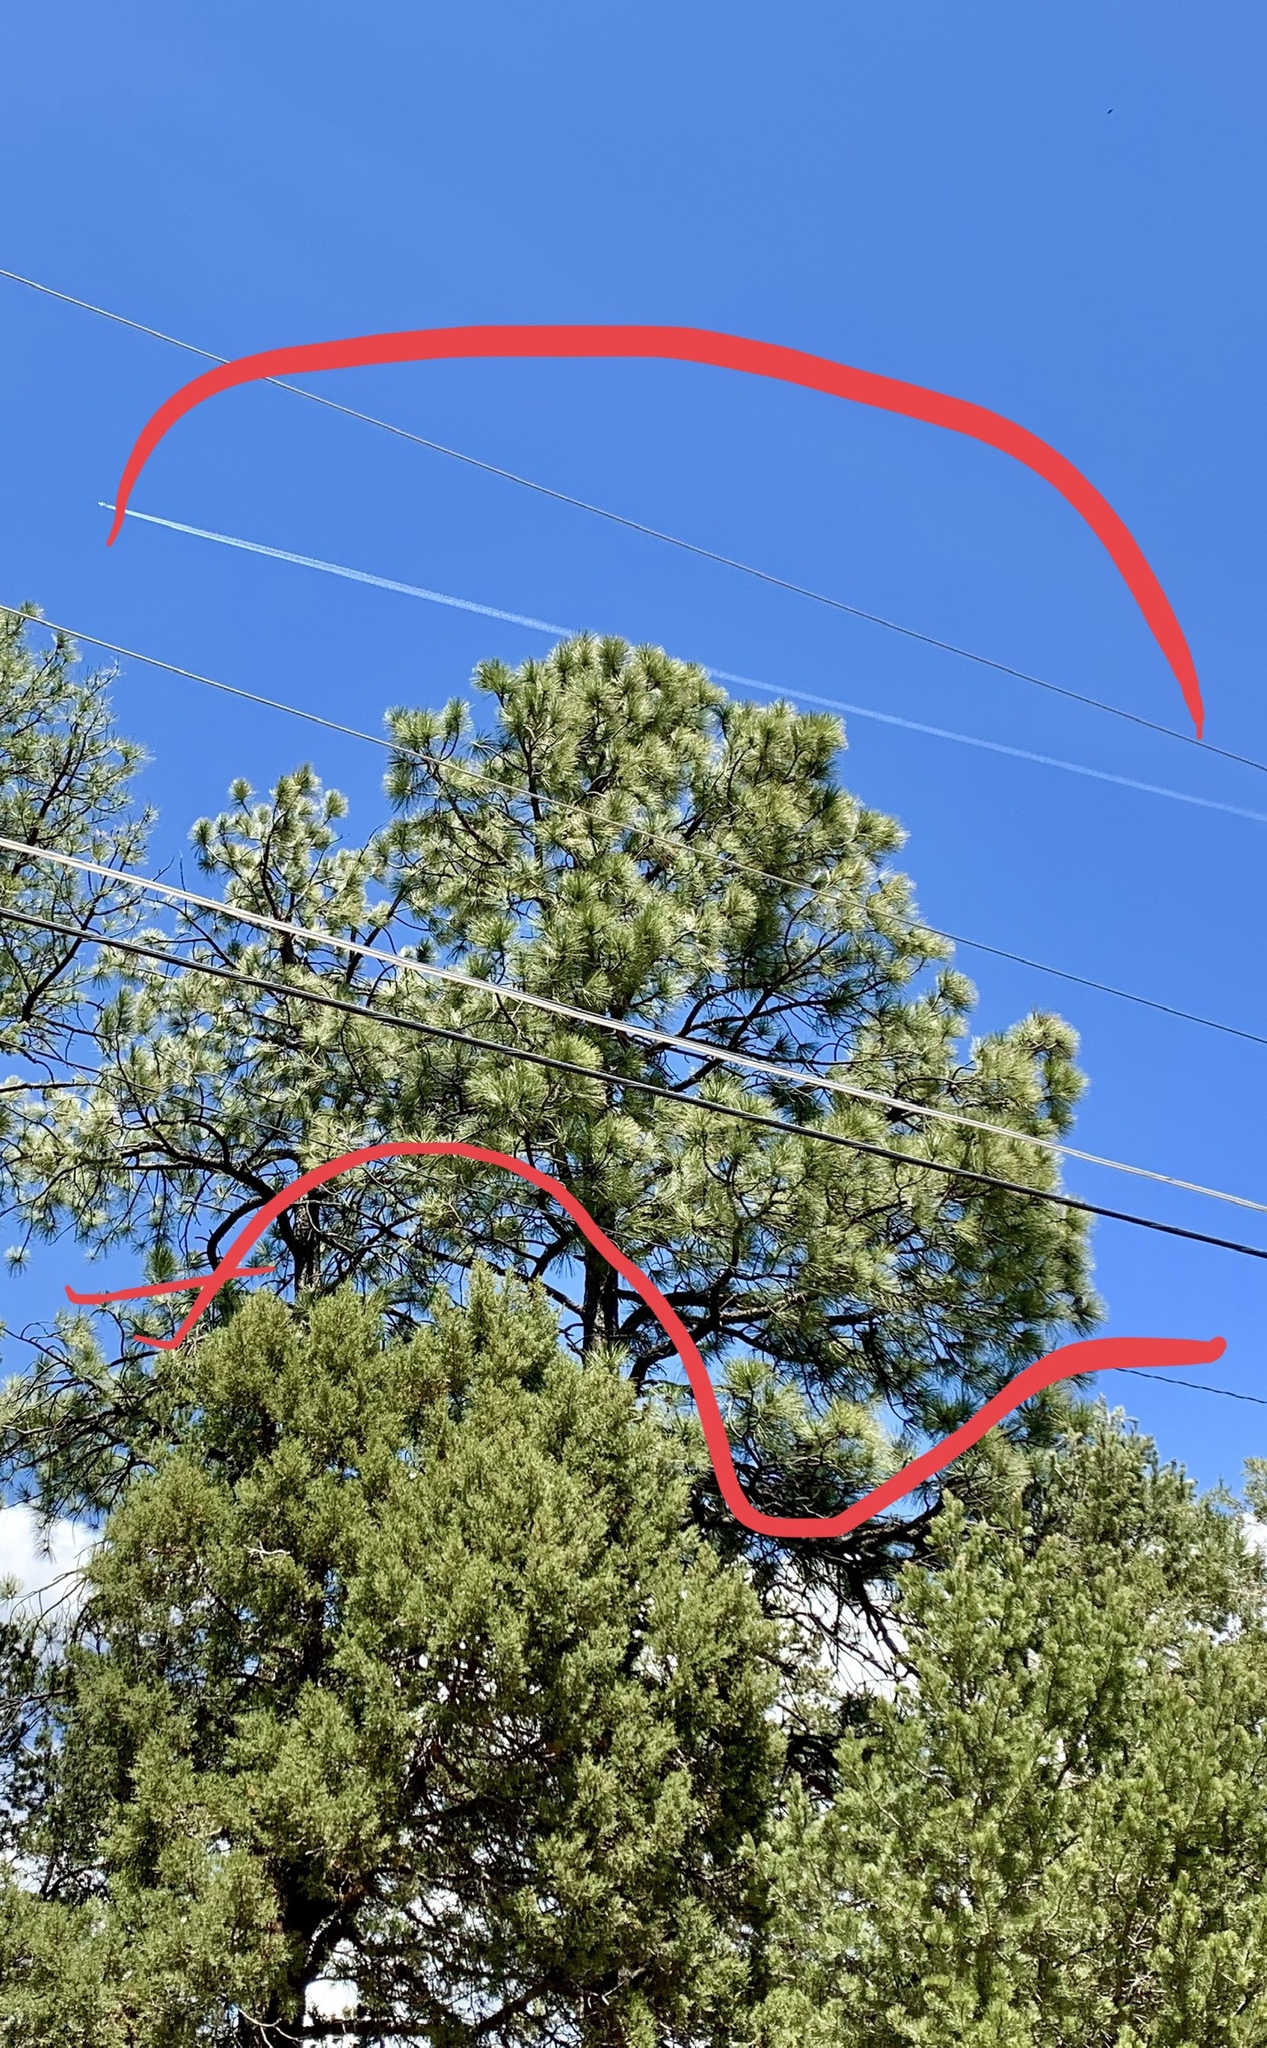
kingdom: Plantae
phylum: Tracheophyta
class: Pinopsida
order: Pinales
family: Pinaceae
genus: Pinus
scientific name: Pinus ponderosa
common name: Western yellow-pine
